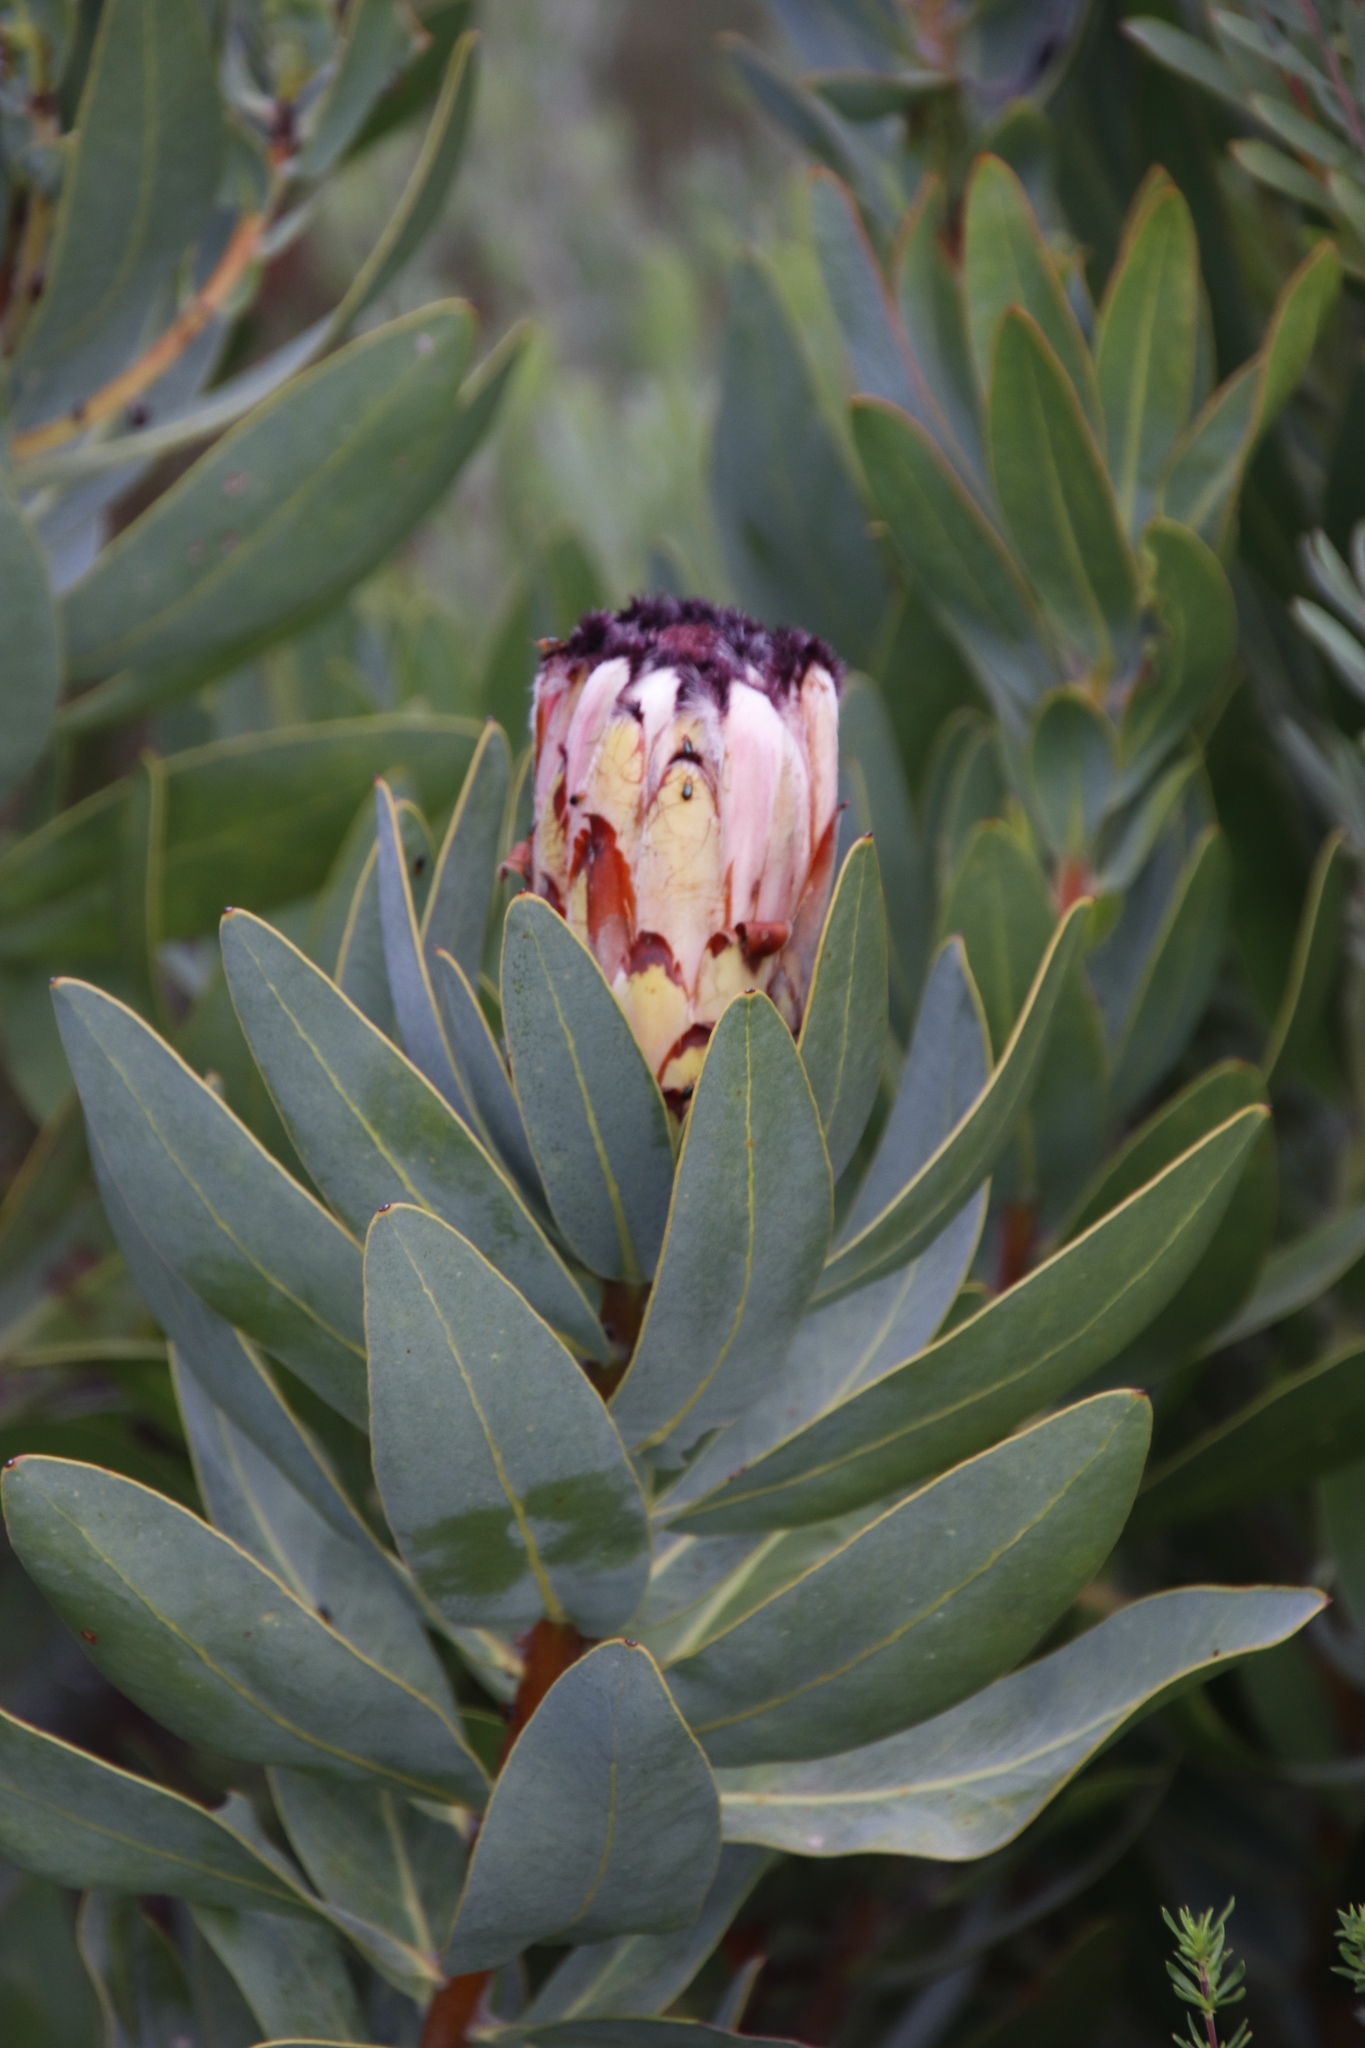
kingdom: Plantae
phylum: Tracheophyta
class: Magnoliopsida
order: Proteales
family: Proteaceae
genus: Protea
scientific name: Protea laurifolia
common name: Grey-leaf sugarbsh
